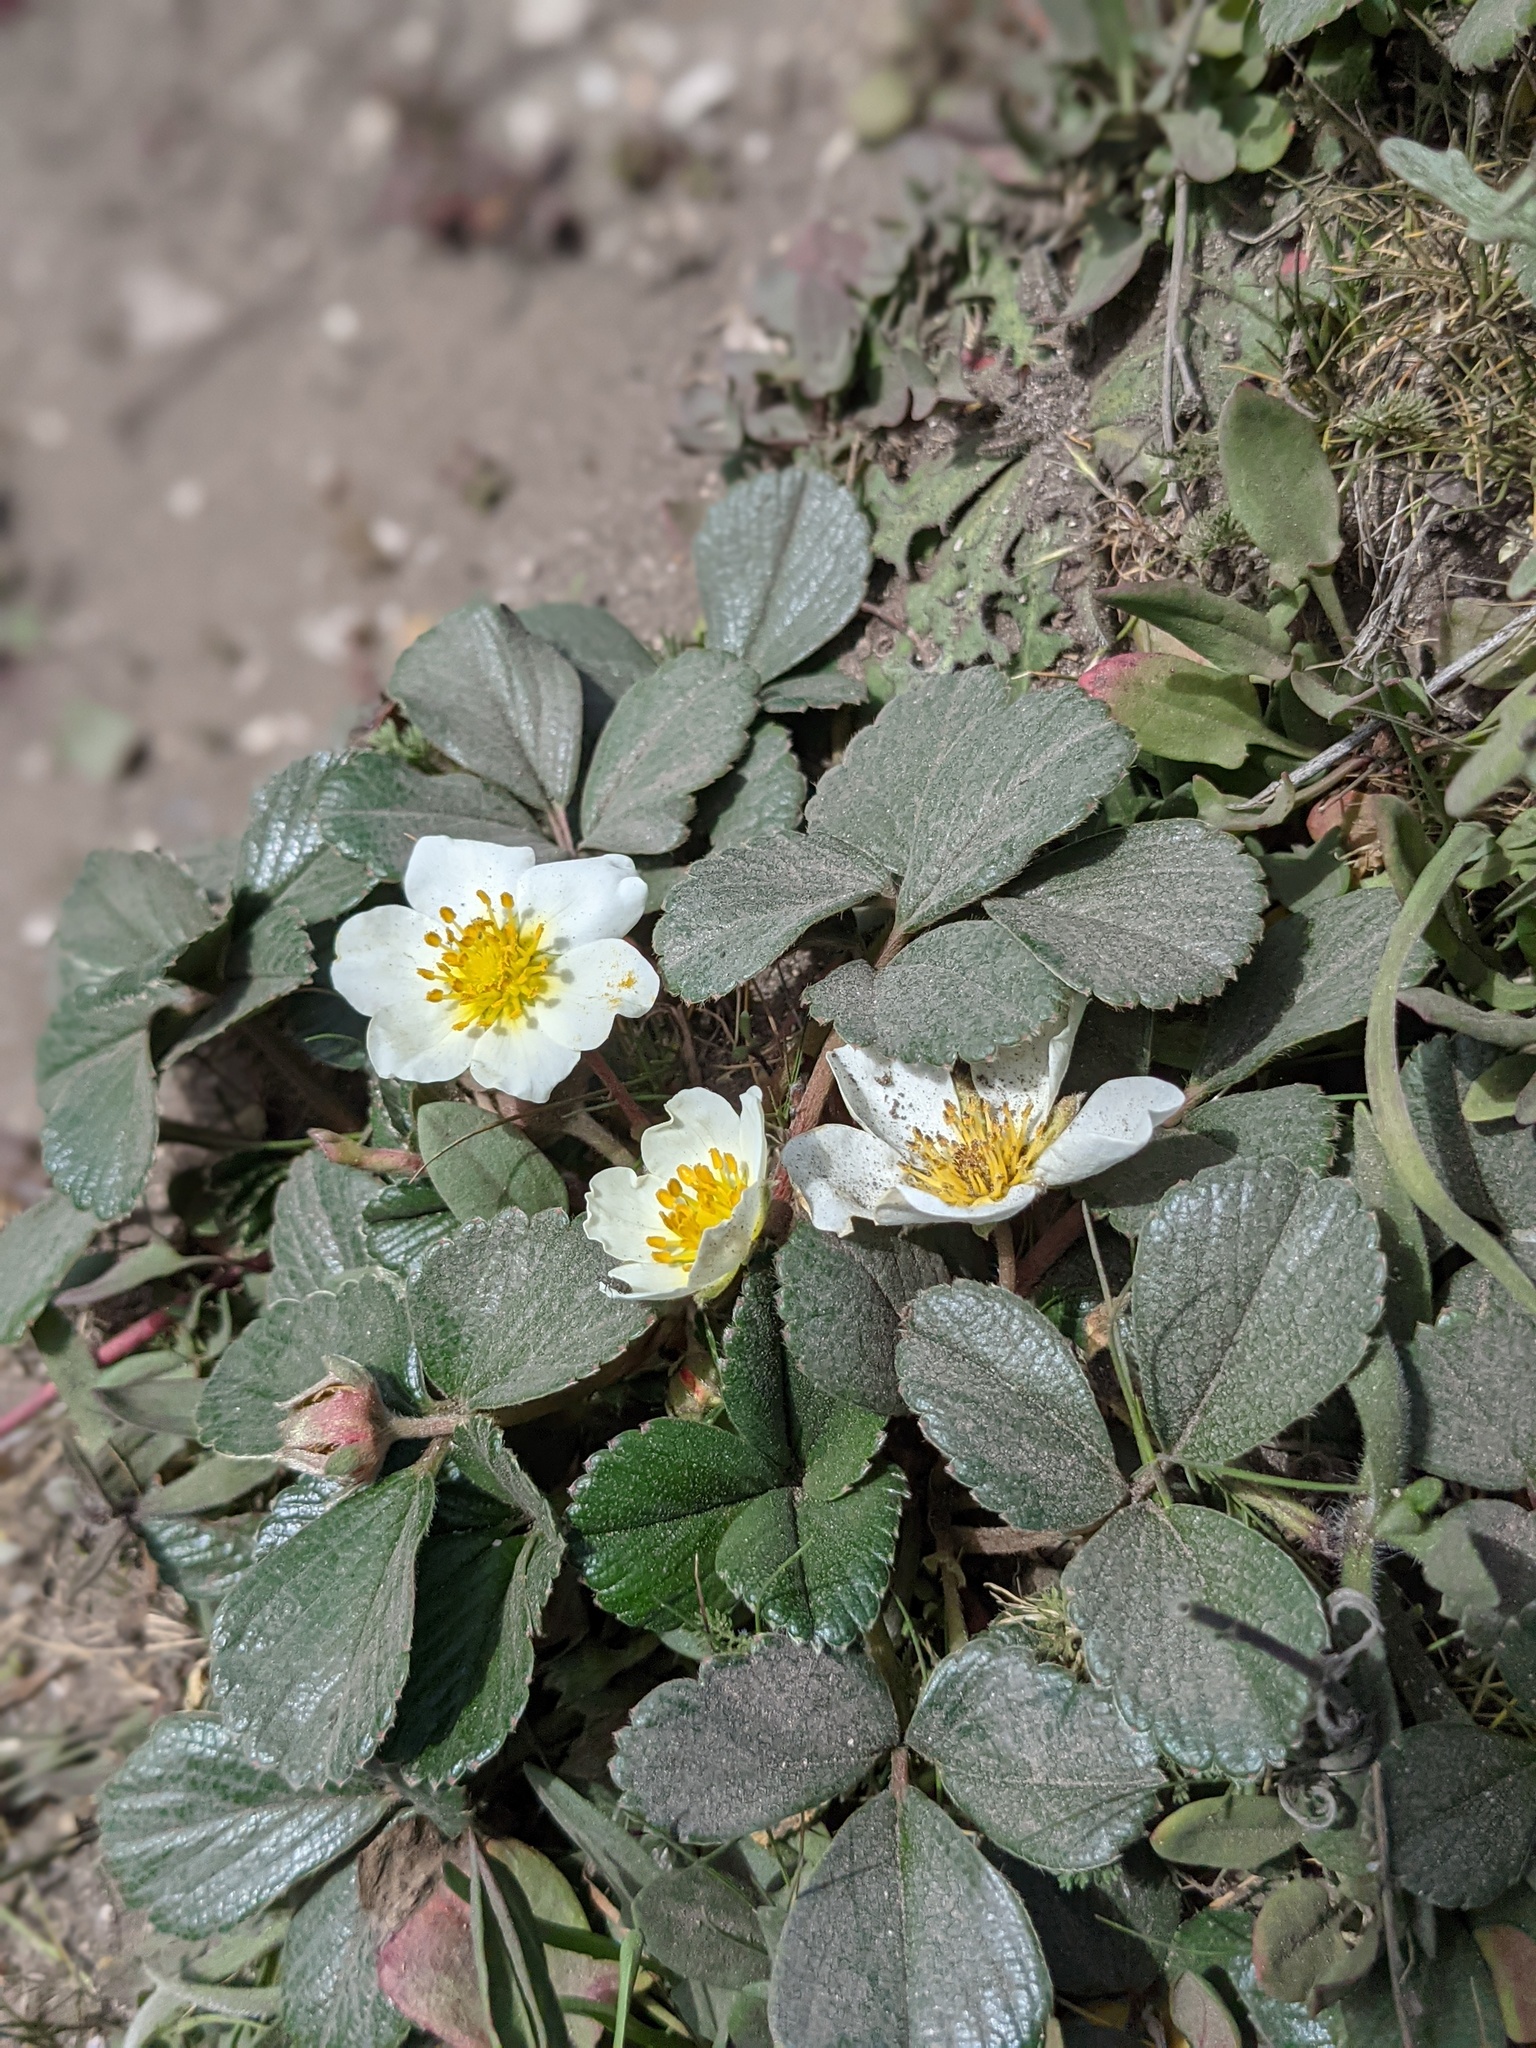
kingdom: Plantae
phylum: Tracheophyta
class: Magnoliopsida
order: Rosales
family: Rosaceae
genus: Fragaria
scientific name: Fragaria chiloensis
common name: Beach strawberry
